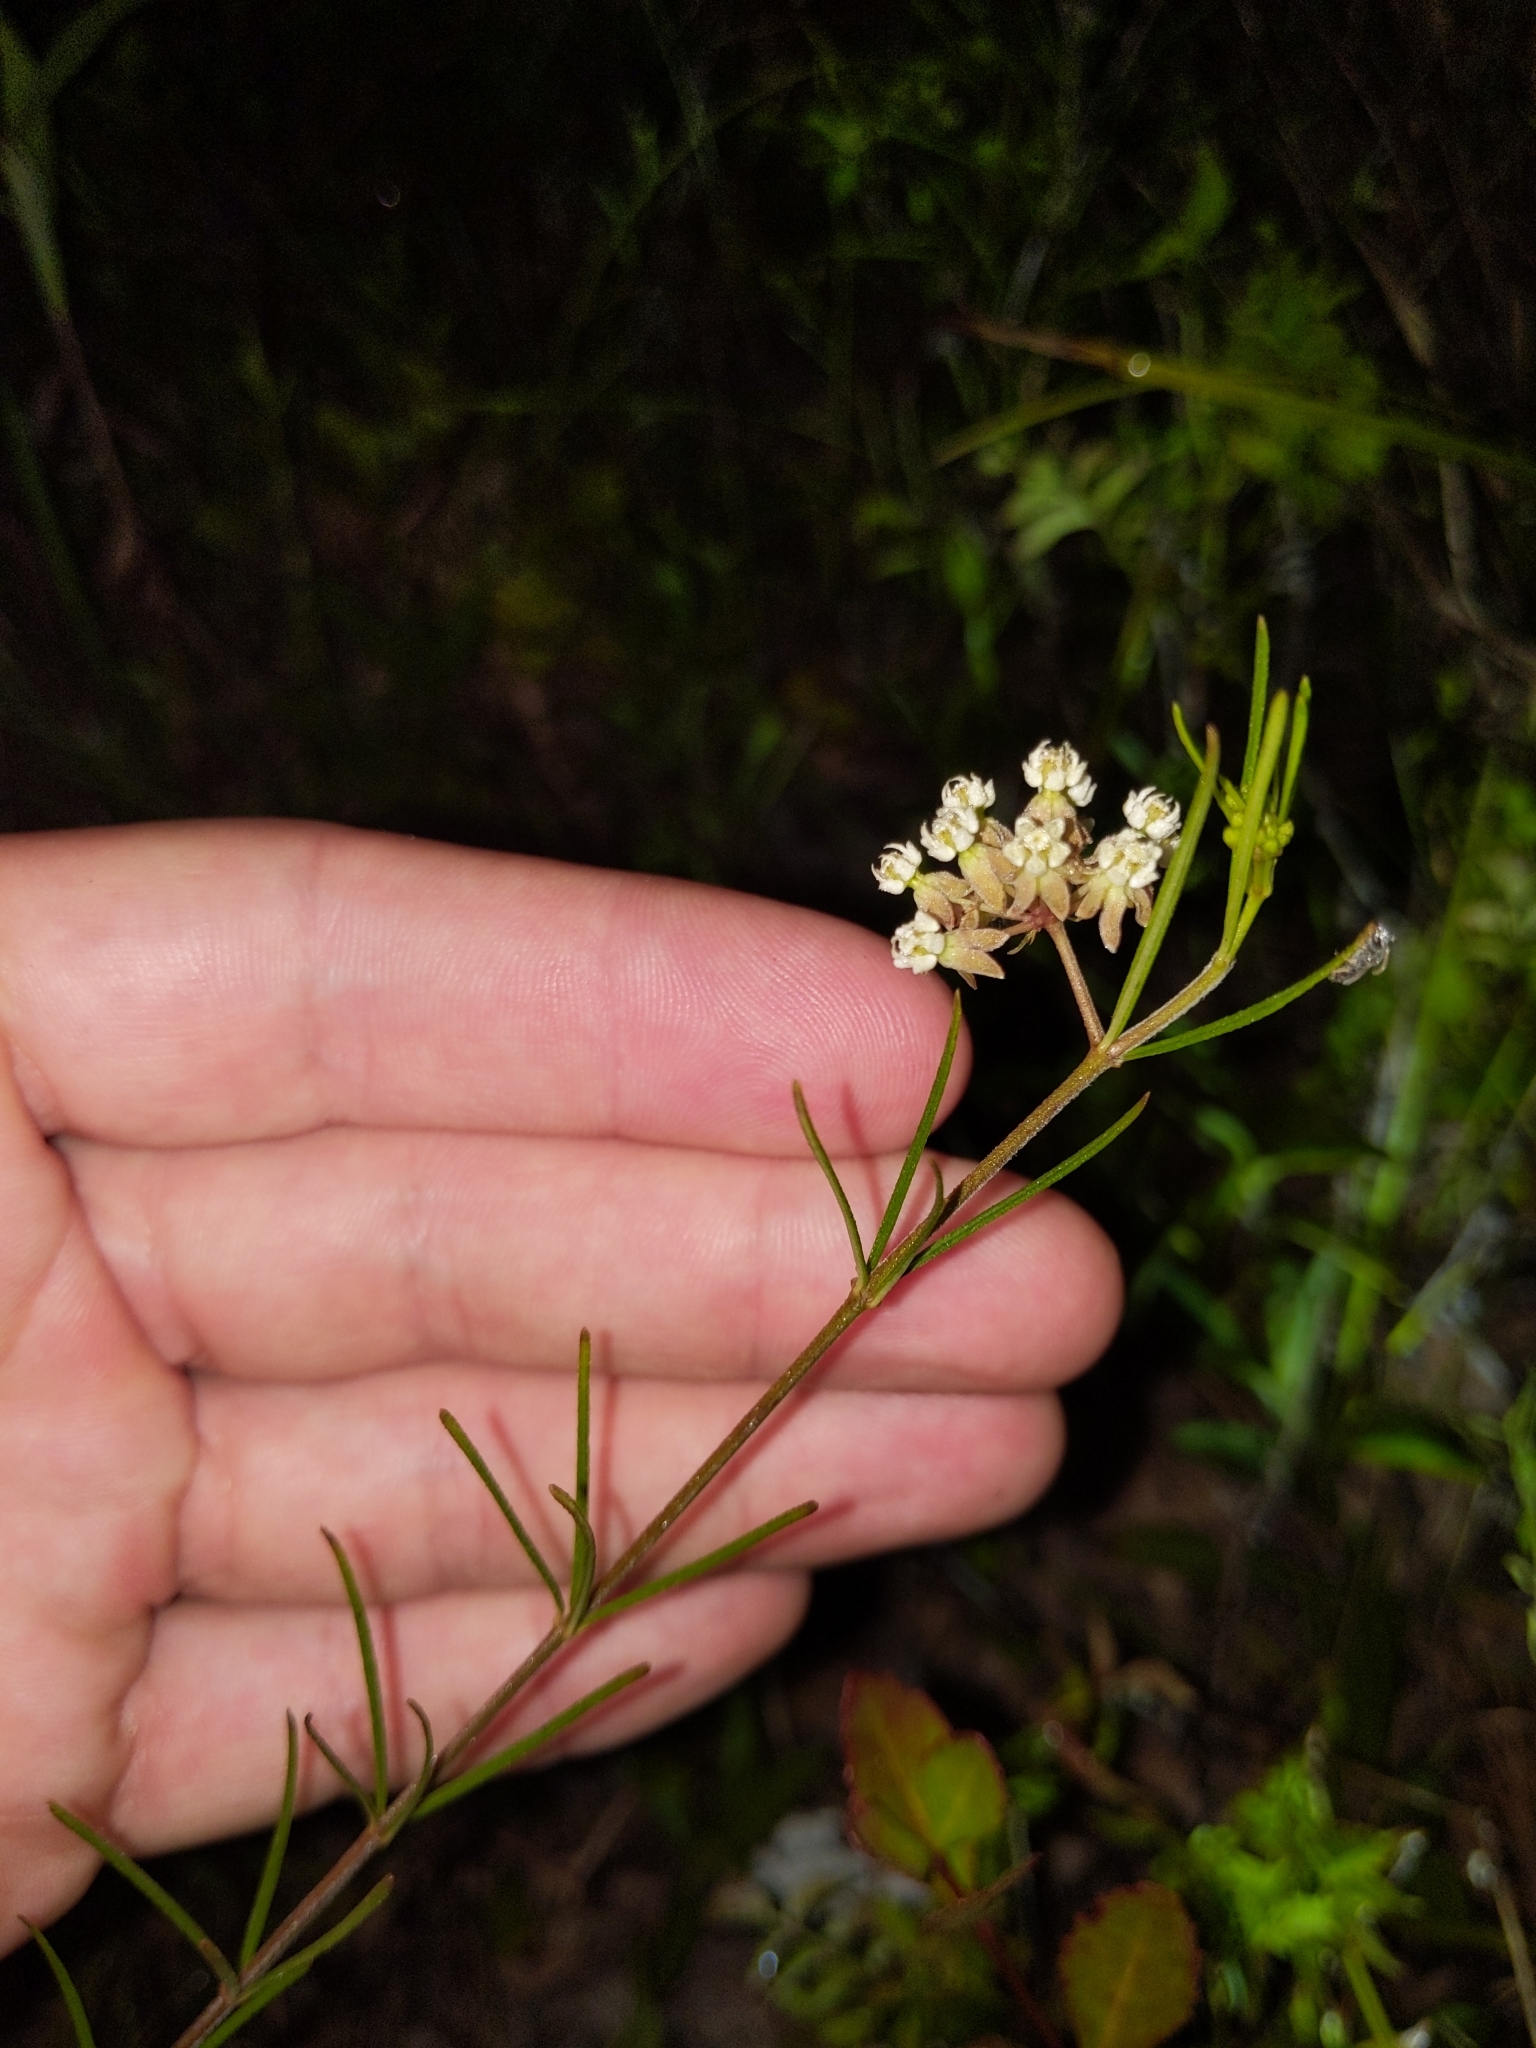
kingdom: Plantae
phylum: Tracheophyta
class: Magnoliopsida
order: Gentianales
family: Apocynaceae
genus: Asclepias
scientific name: Asclepias verticillata
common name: Eastern whorled milkweed
